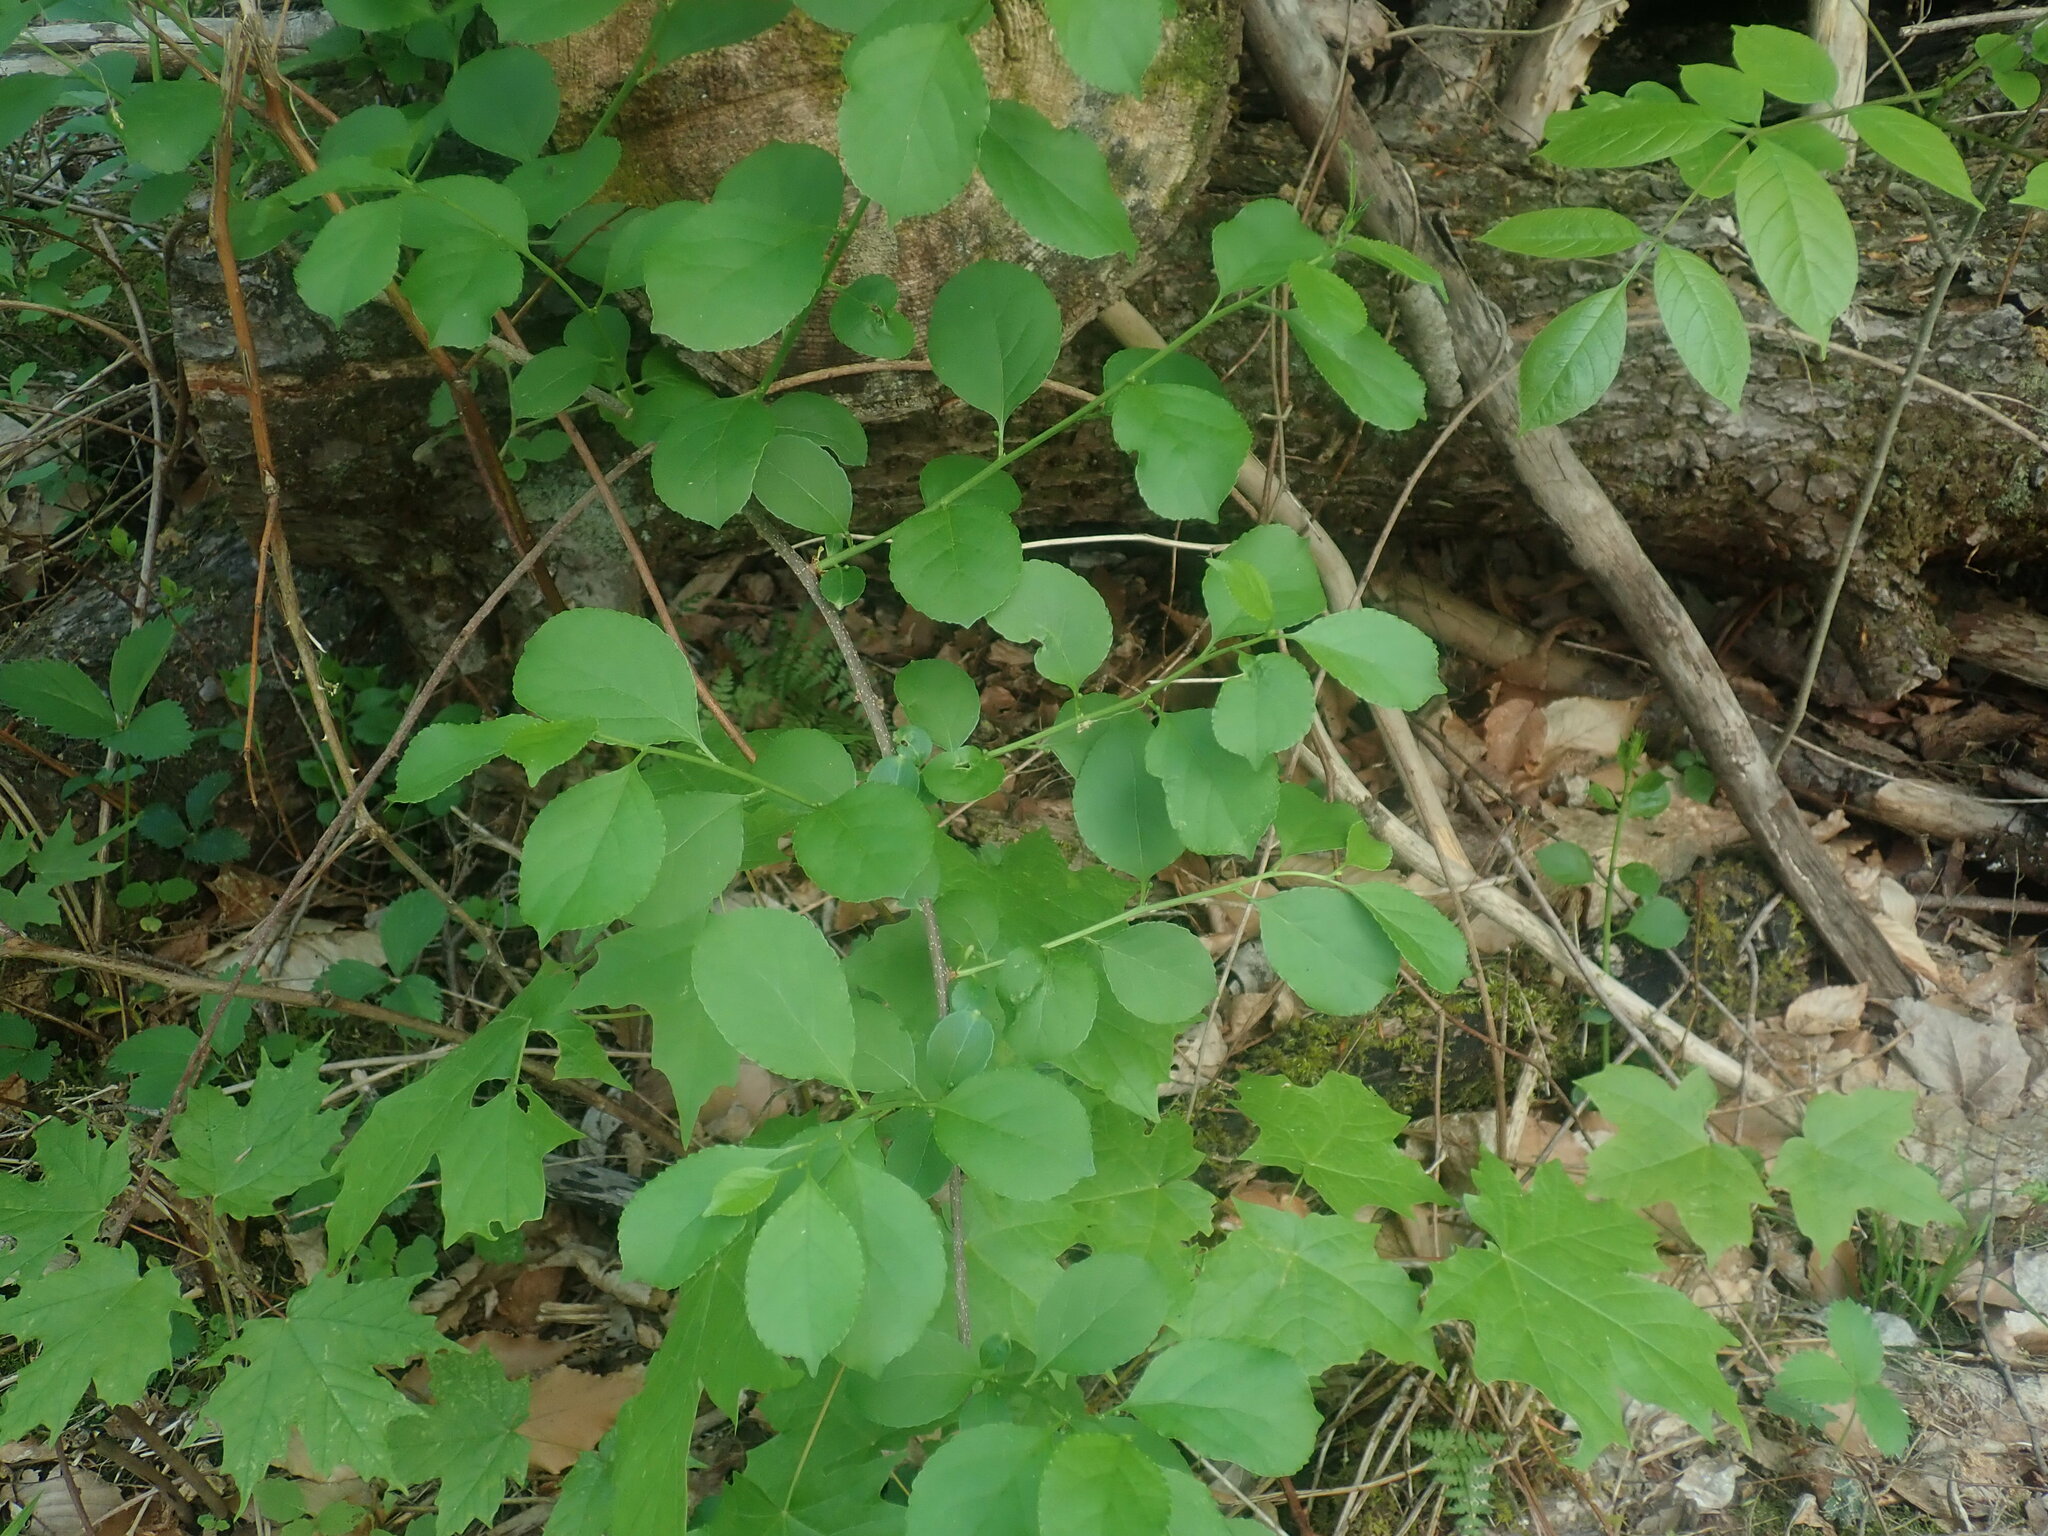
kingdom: Plantae
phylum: Tracheophyta
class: Magnoliopsida
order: Celastrales
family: Celastraceae
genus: Celastrus
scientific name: Celastrus orbiculatus
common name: Oriental bittersweet
